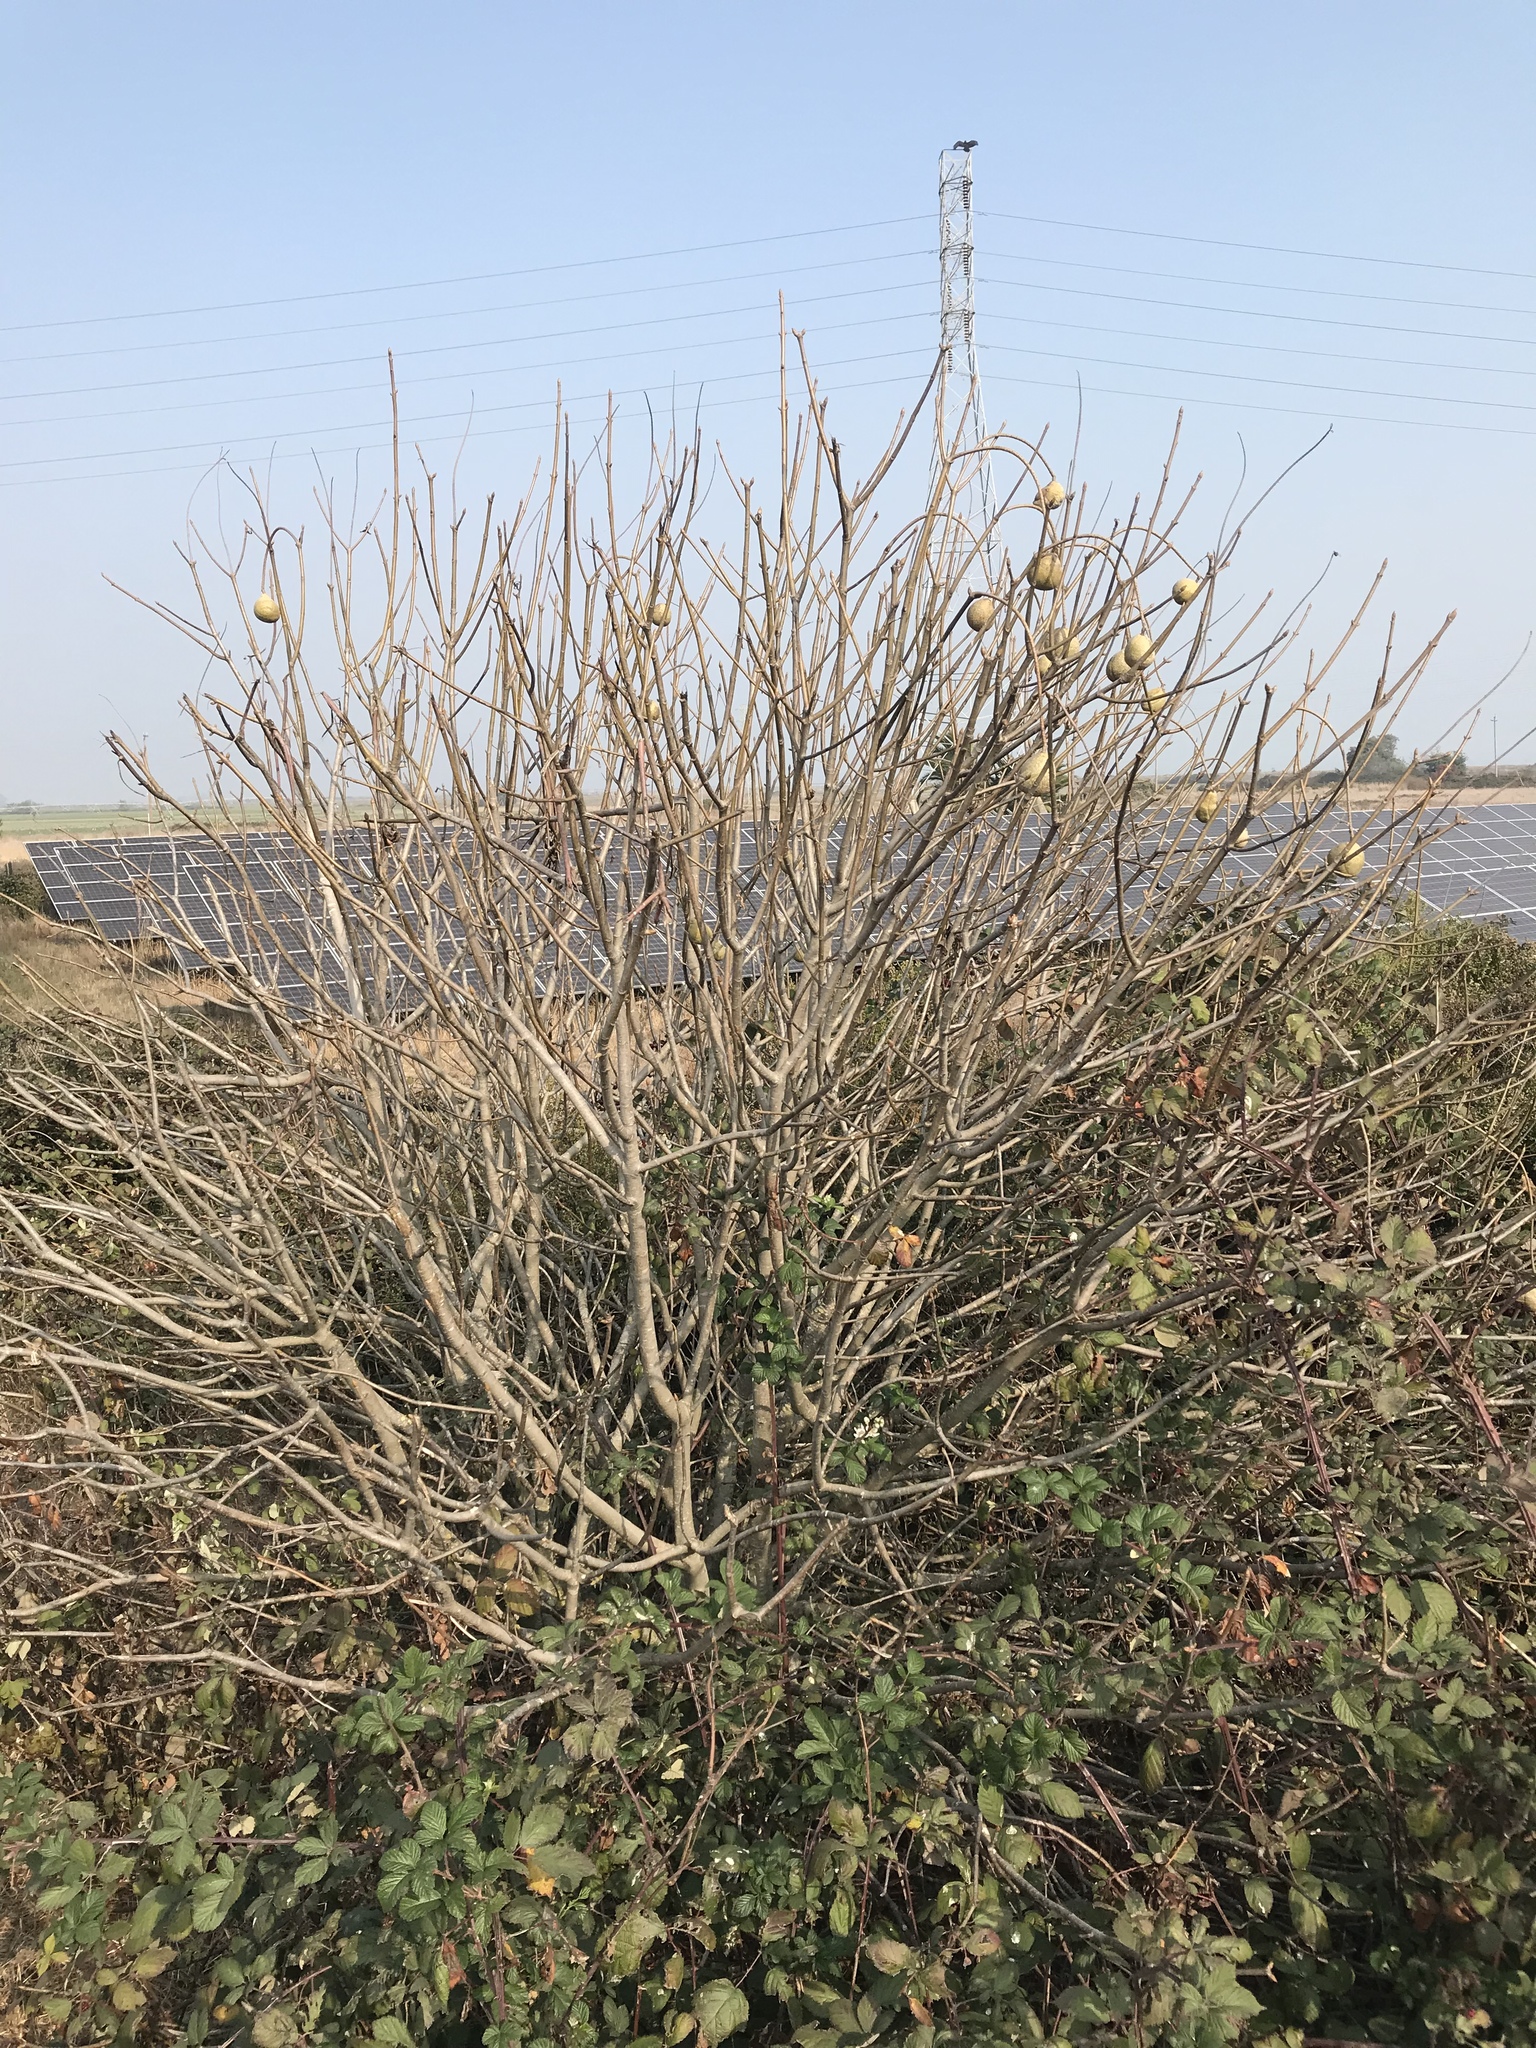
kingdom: Plantae
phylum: Tracheophyta
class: Magnoliopsida
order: Sapindales
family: Sapindaceae
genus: Aesculus
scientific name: Aesculus californica
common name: California buckeye
